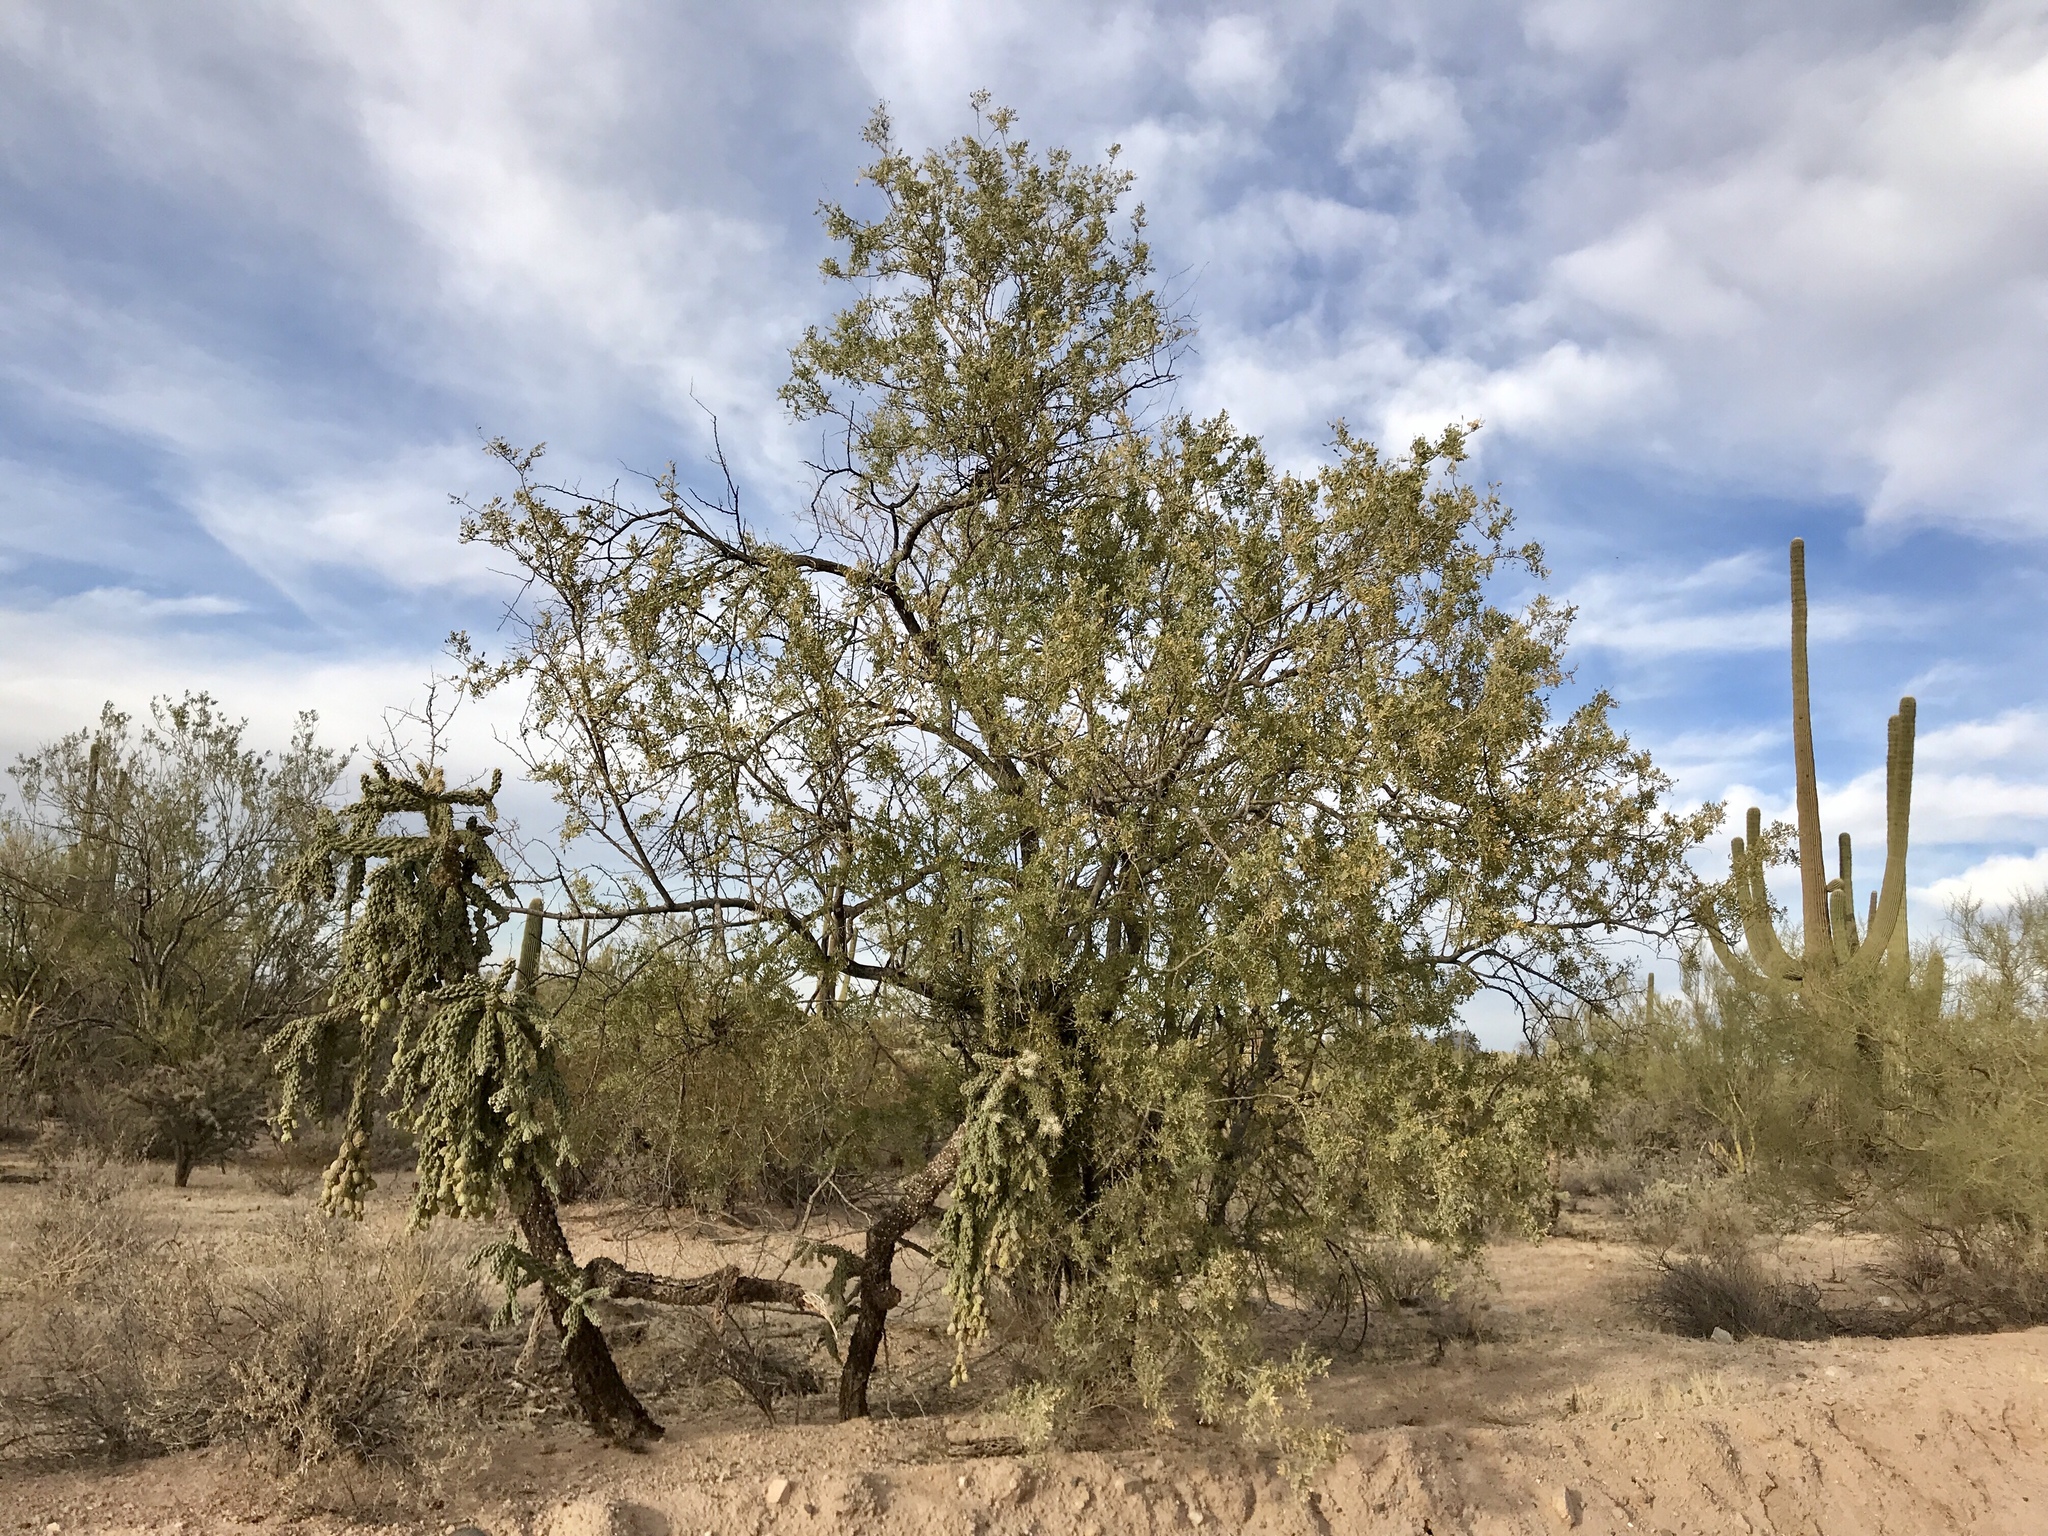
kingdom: Plantae
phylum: Tracheophyta
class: Magnoliopsida
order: Fabales
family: Fabaceae
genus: Olneya
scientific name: Olneya tesota
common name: Desert ironwood
